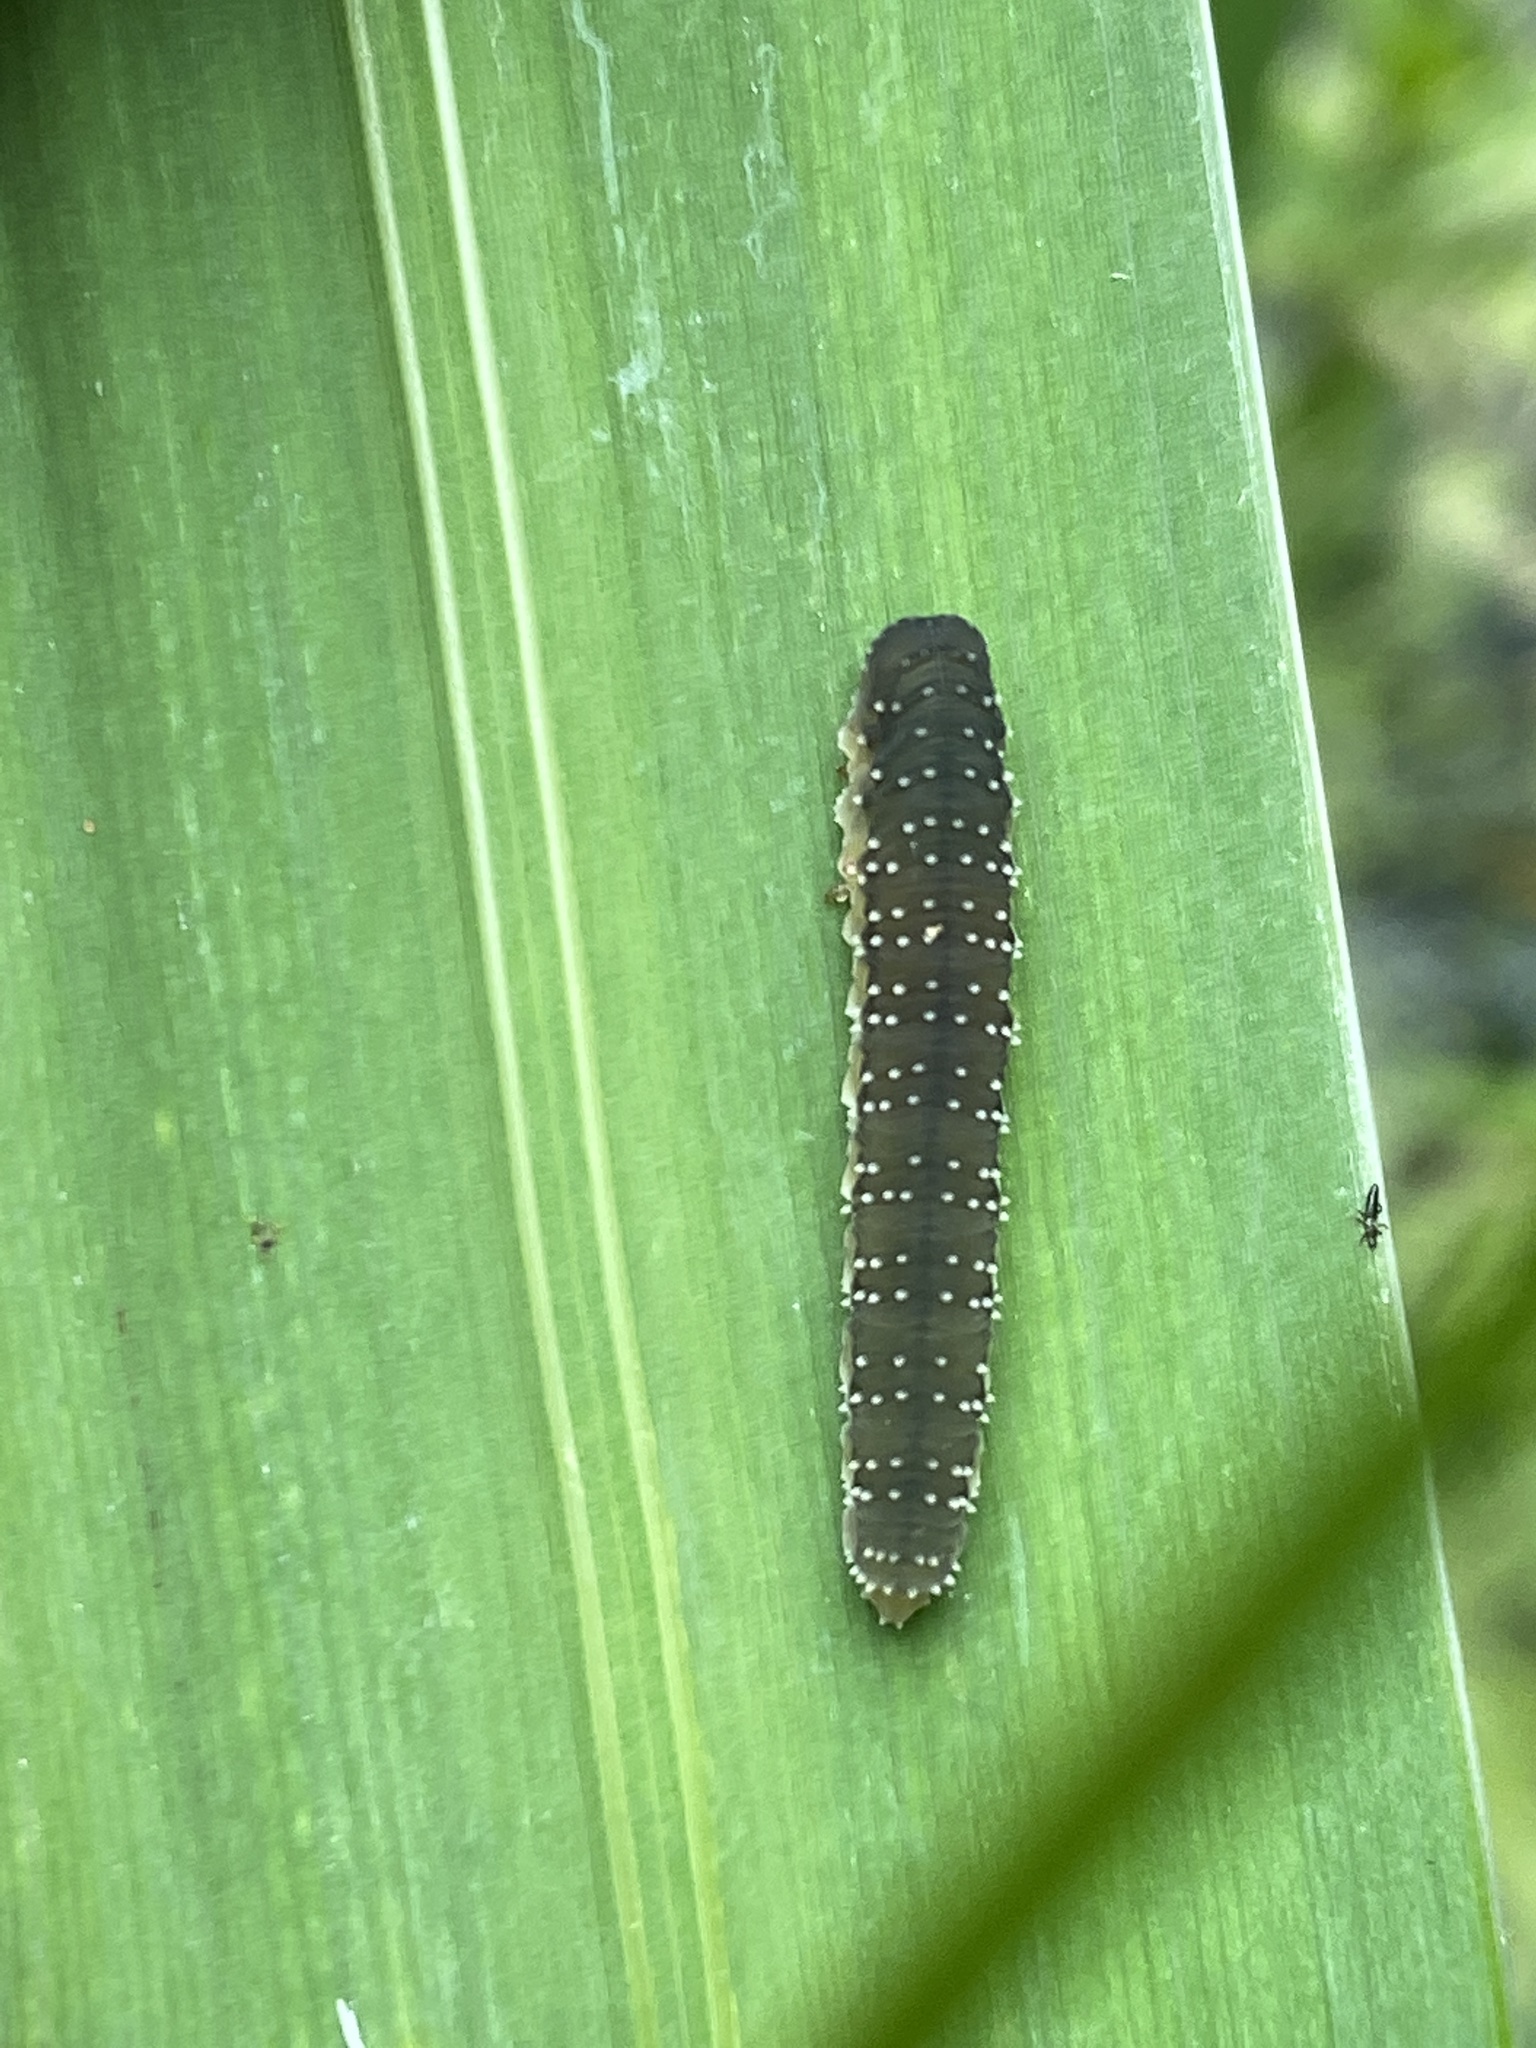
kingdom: Animalia
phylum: Arthropoda
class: Insecta
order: Hymenoptera
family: Tenthredinidae
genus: Rhadinoceraea
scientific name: Rhadinoceraea micans
